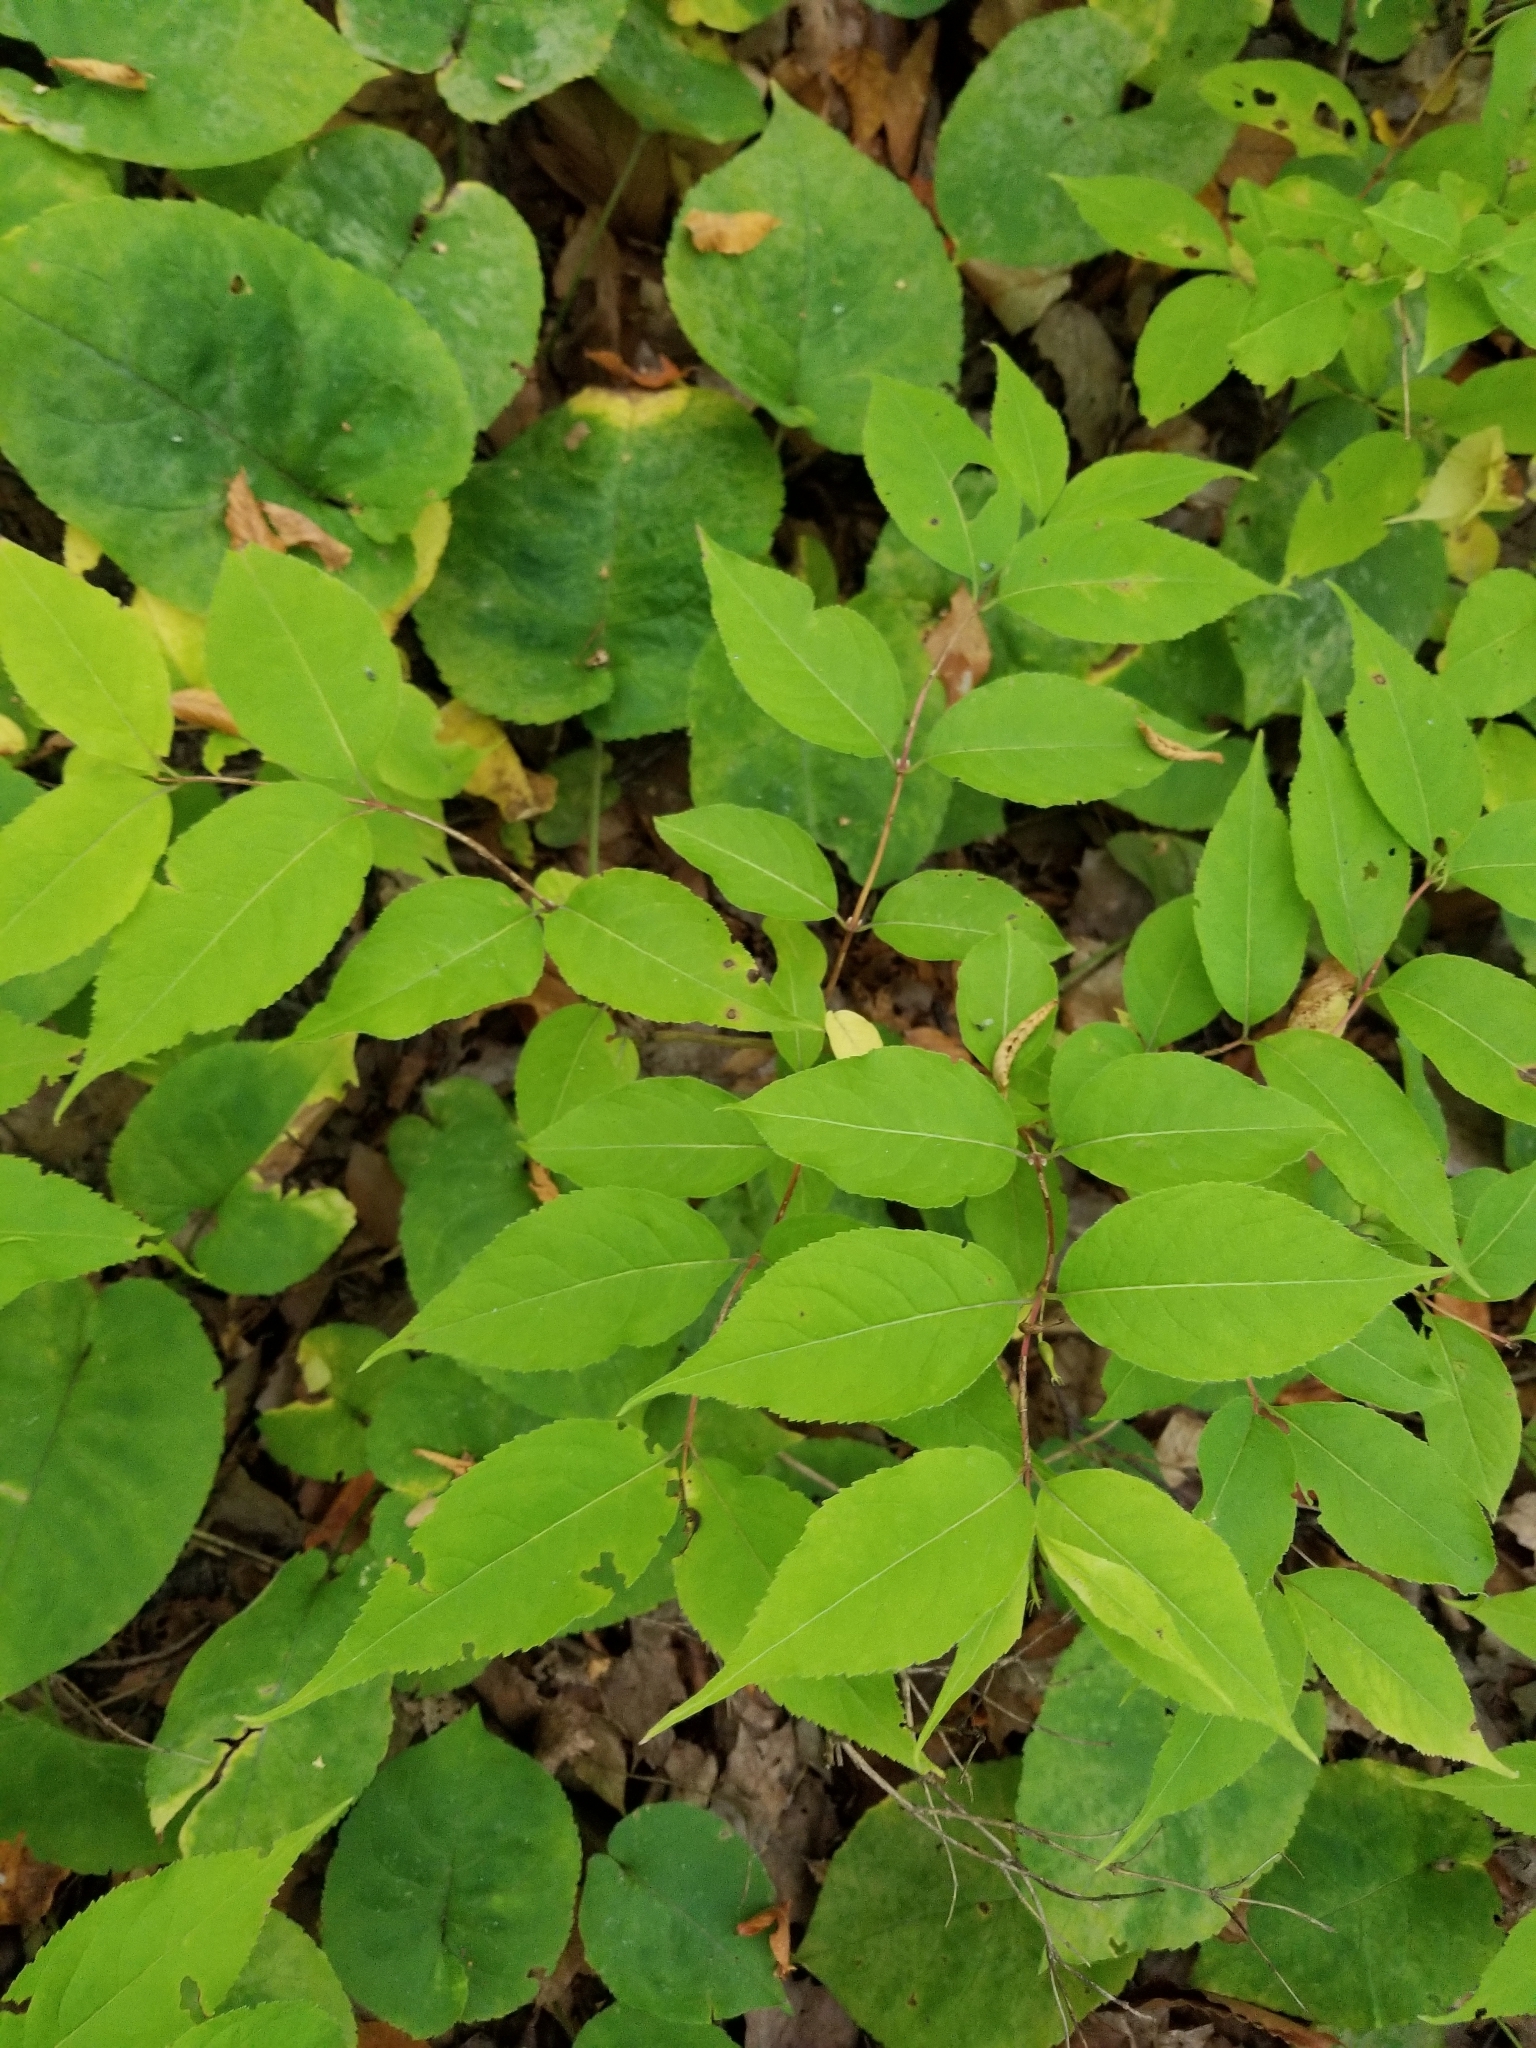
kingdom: Plantae
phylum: Tracheophyta
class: Magnoliopsida
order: Dipsacales
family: Caprifoliaceae
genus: Diervilla
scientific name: Diervilla lonicera
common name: Bush-honeysuckle
